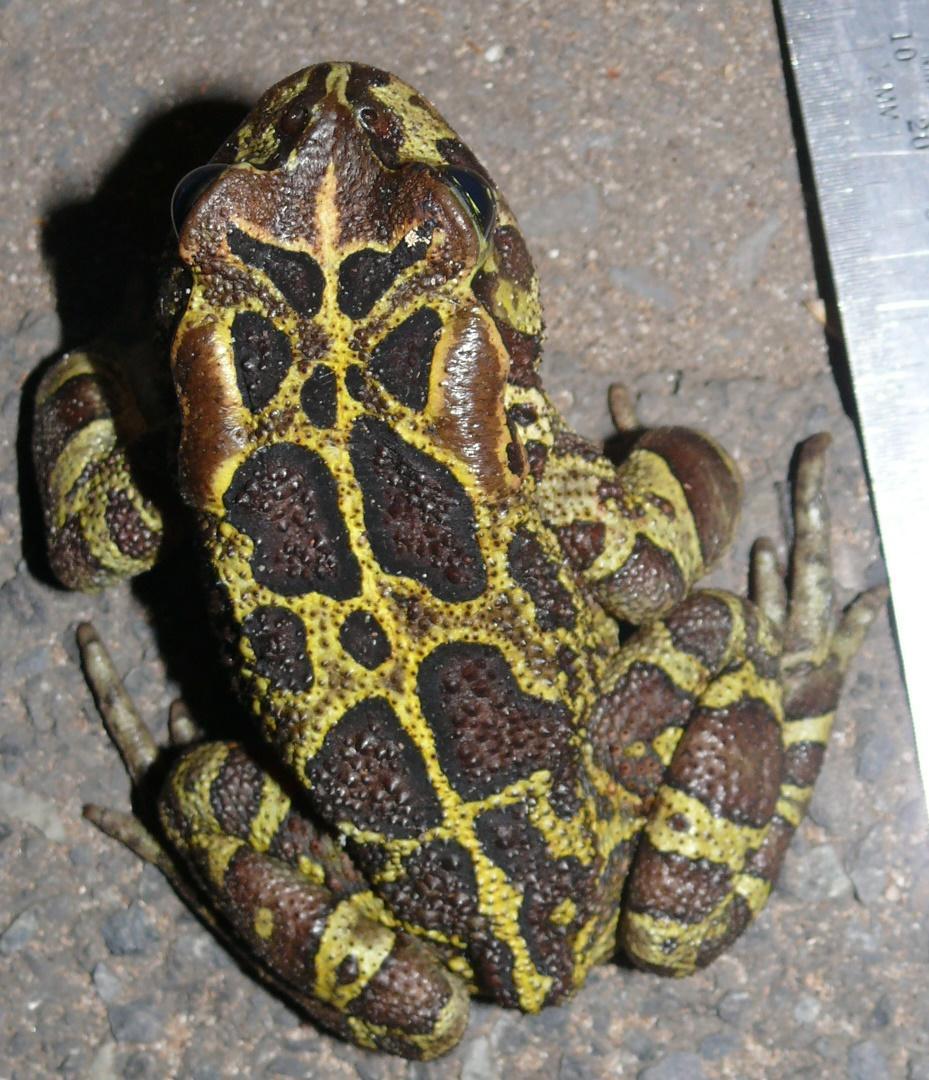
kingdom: Animalia
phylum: Chordata
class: Amphibia
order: Anura
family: Bufonidae
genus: Sclerophrys
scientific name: Sclerophrys pantherina
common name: Panther toad
